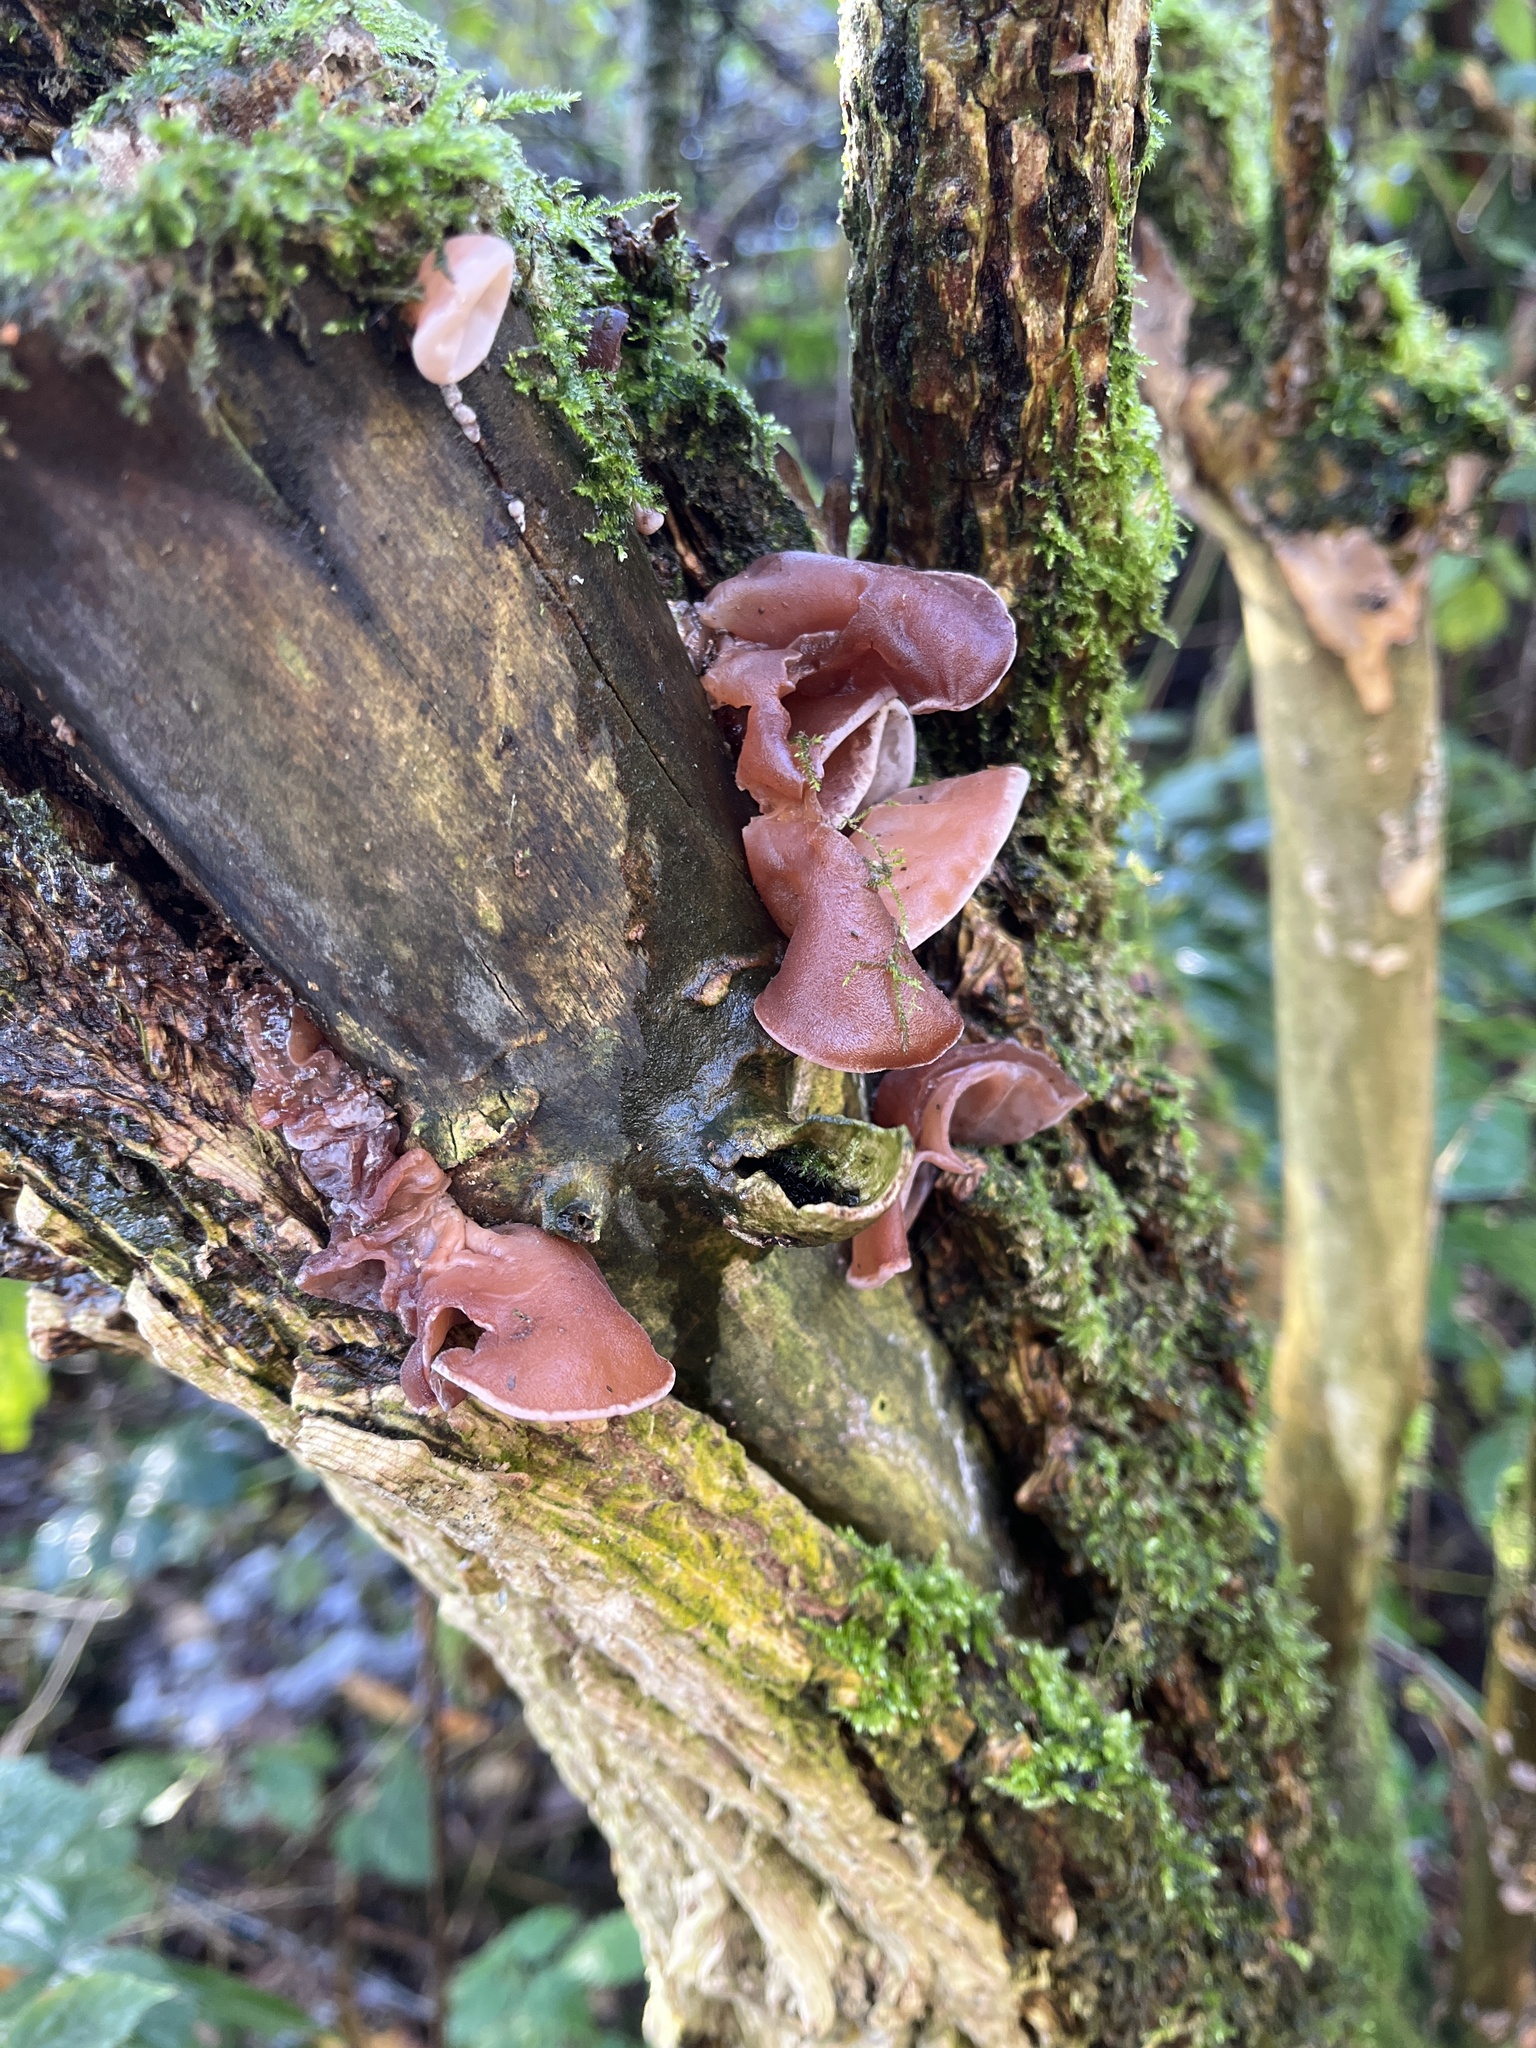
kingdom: Fungi
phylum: Basidiomycota
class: Agaricomycetes
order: Auriculariales
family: Auriculariaceae
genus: Auricularia
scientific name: Auricularia auricula-judae
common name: Jelly ear
